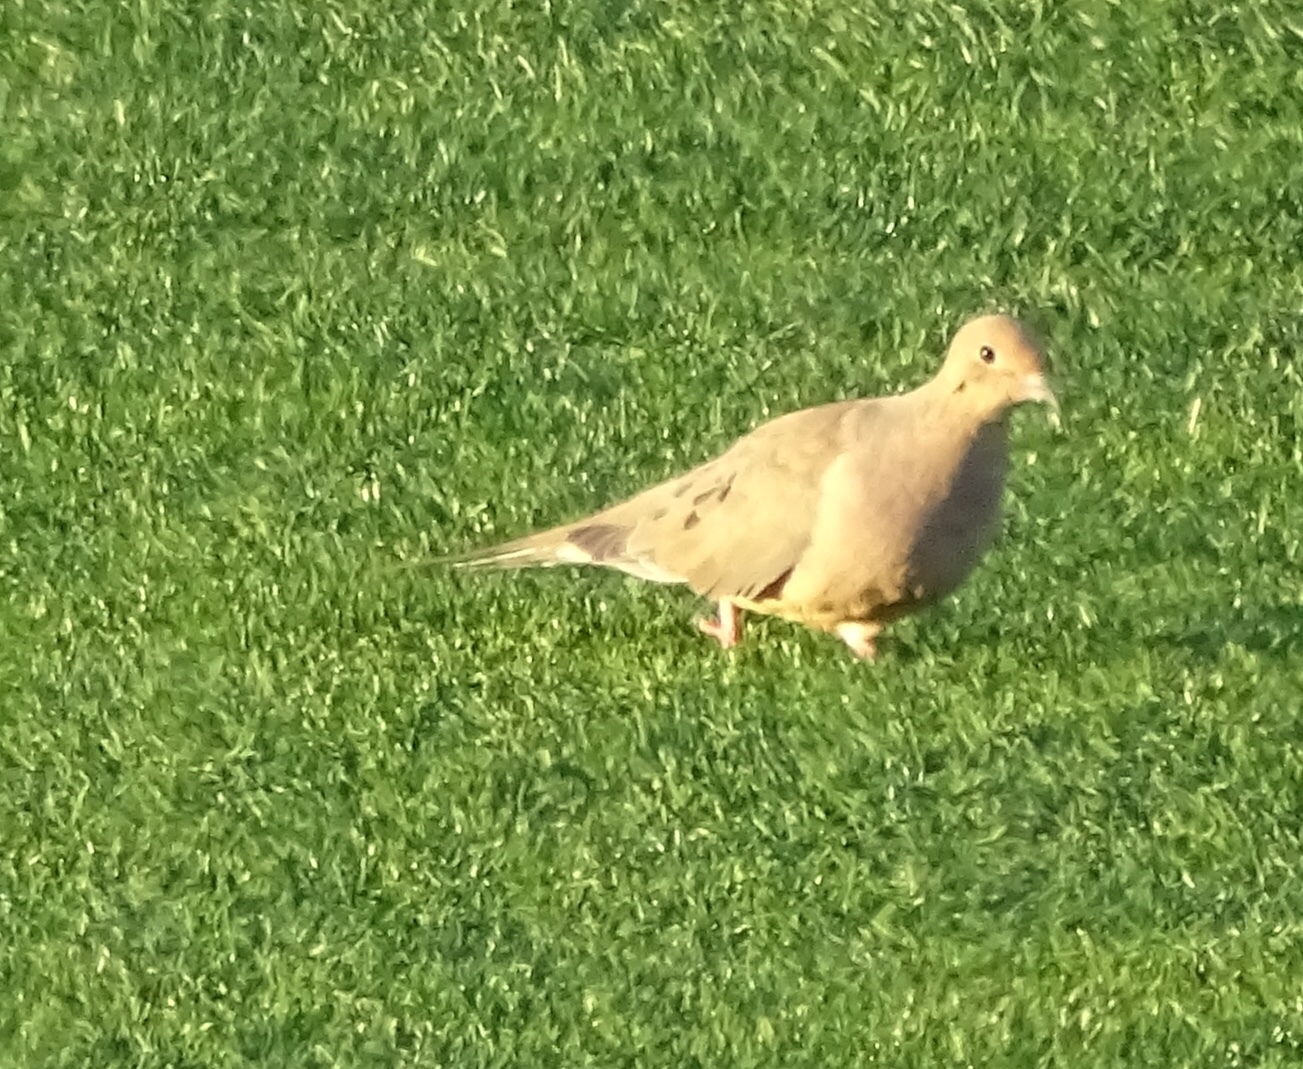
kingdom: Animalia
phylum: Chordata
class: Aves
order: Columbiformes
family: Columbidae
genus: Zenaida
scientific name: Zenaida macroura
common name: Mourning dove
